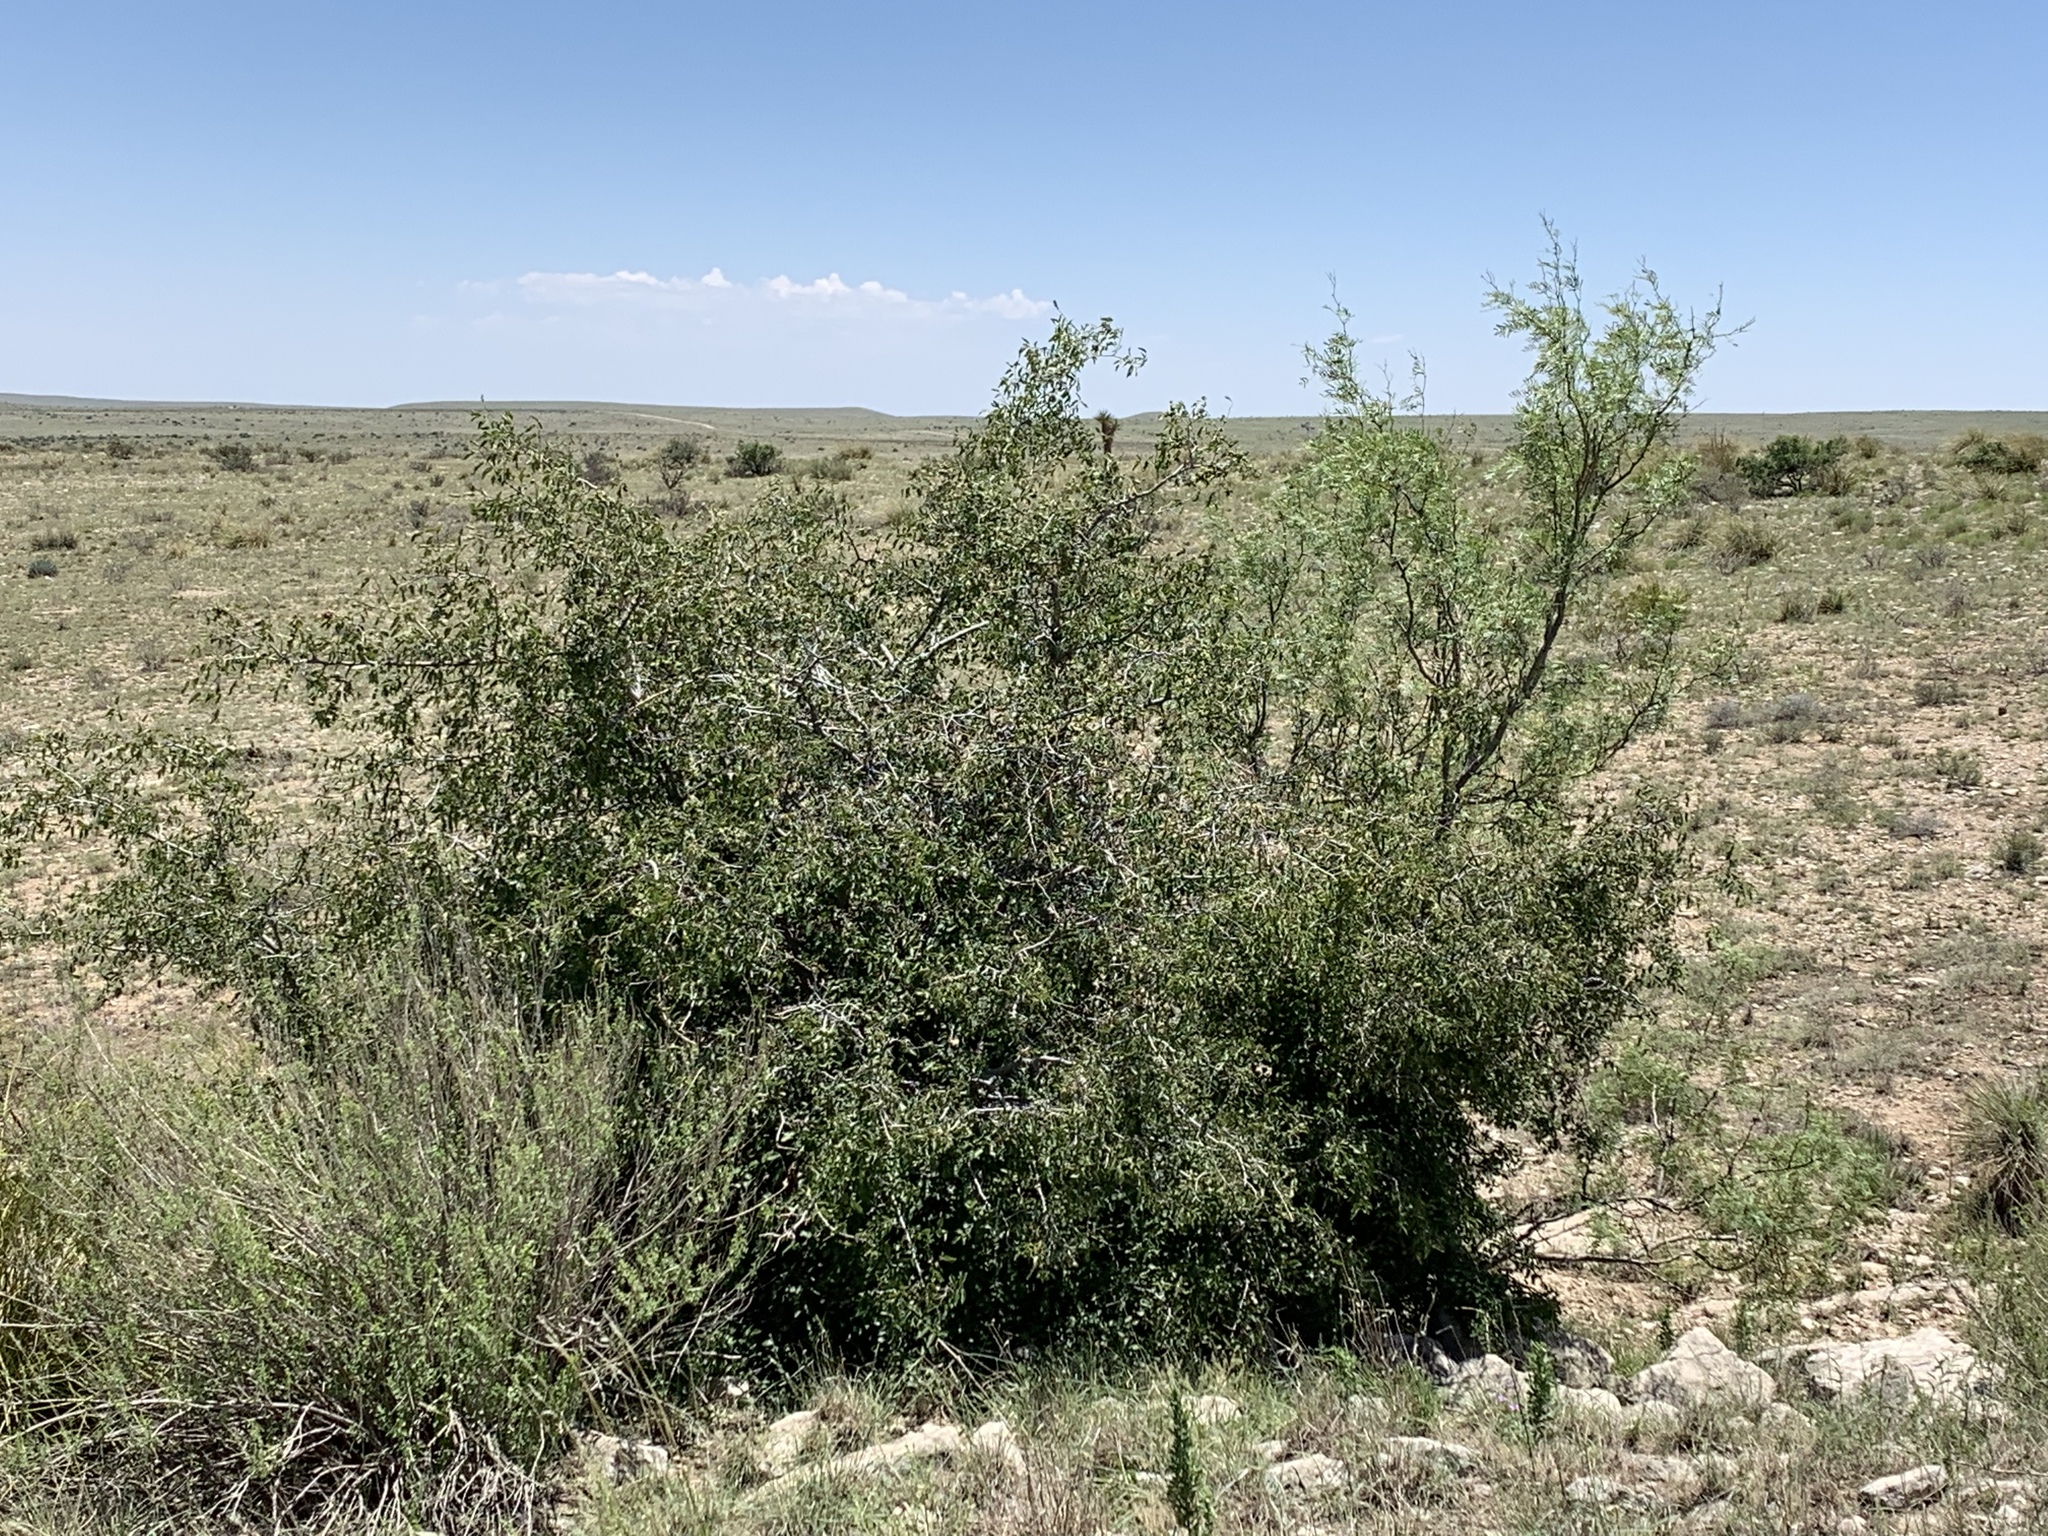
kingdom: Plantae
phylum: Tracheophyta
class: Magnoliopsida
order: Fabales
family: Fabaceae
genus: Prosopis
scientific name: Prosopis glandulosa
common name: Honey mesquite
